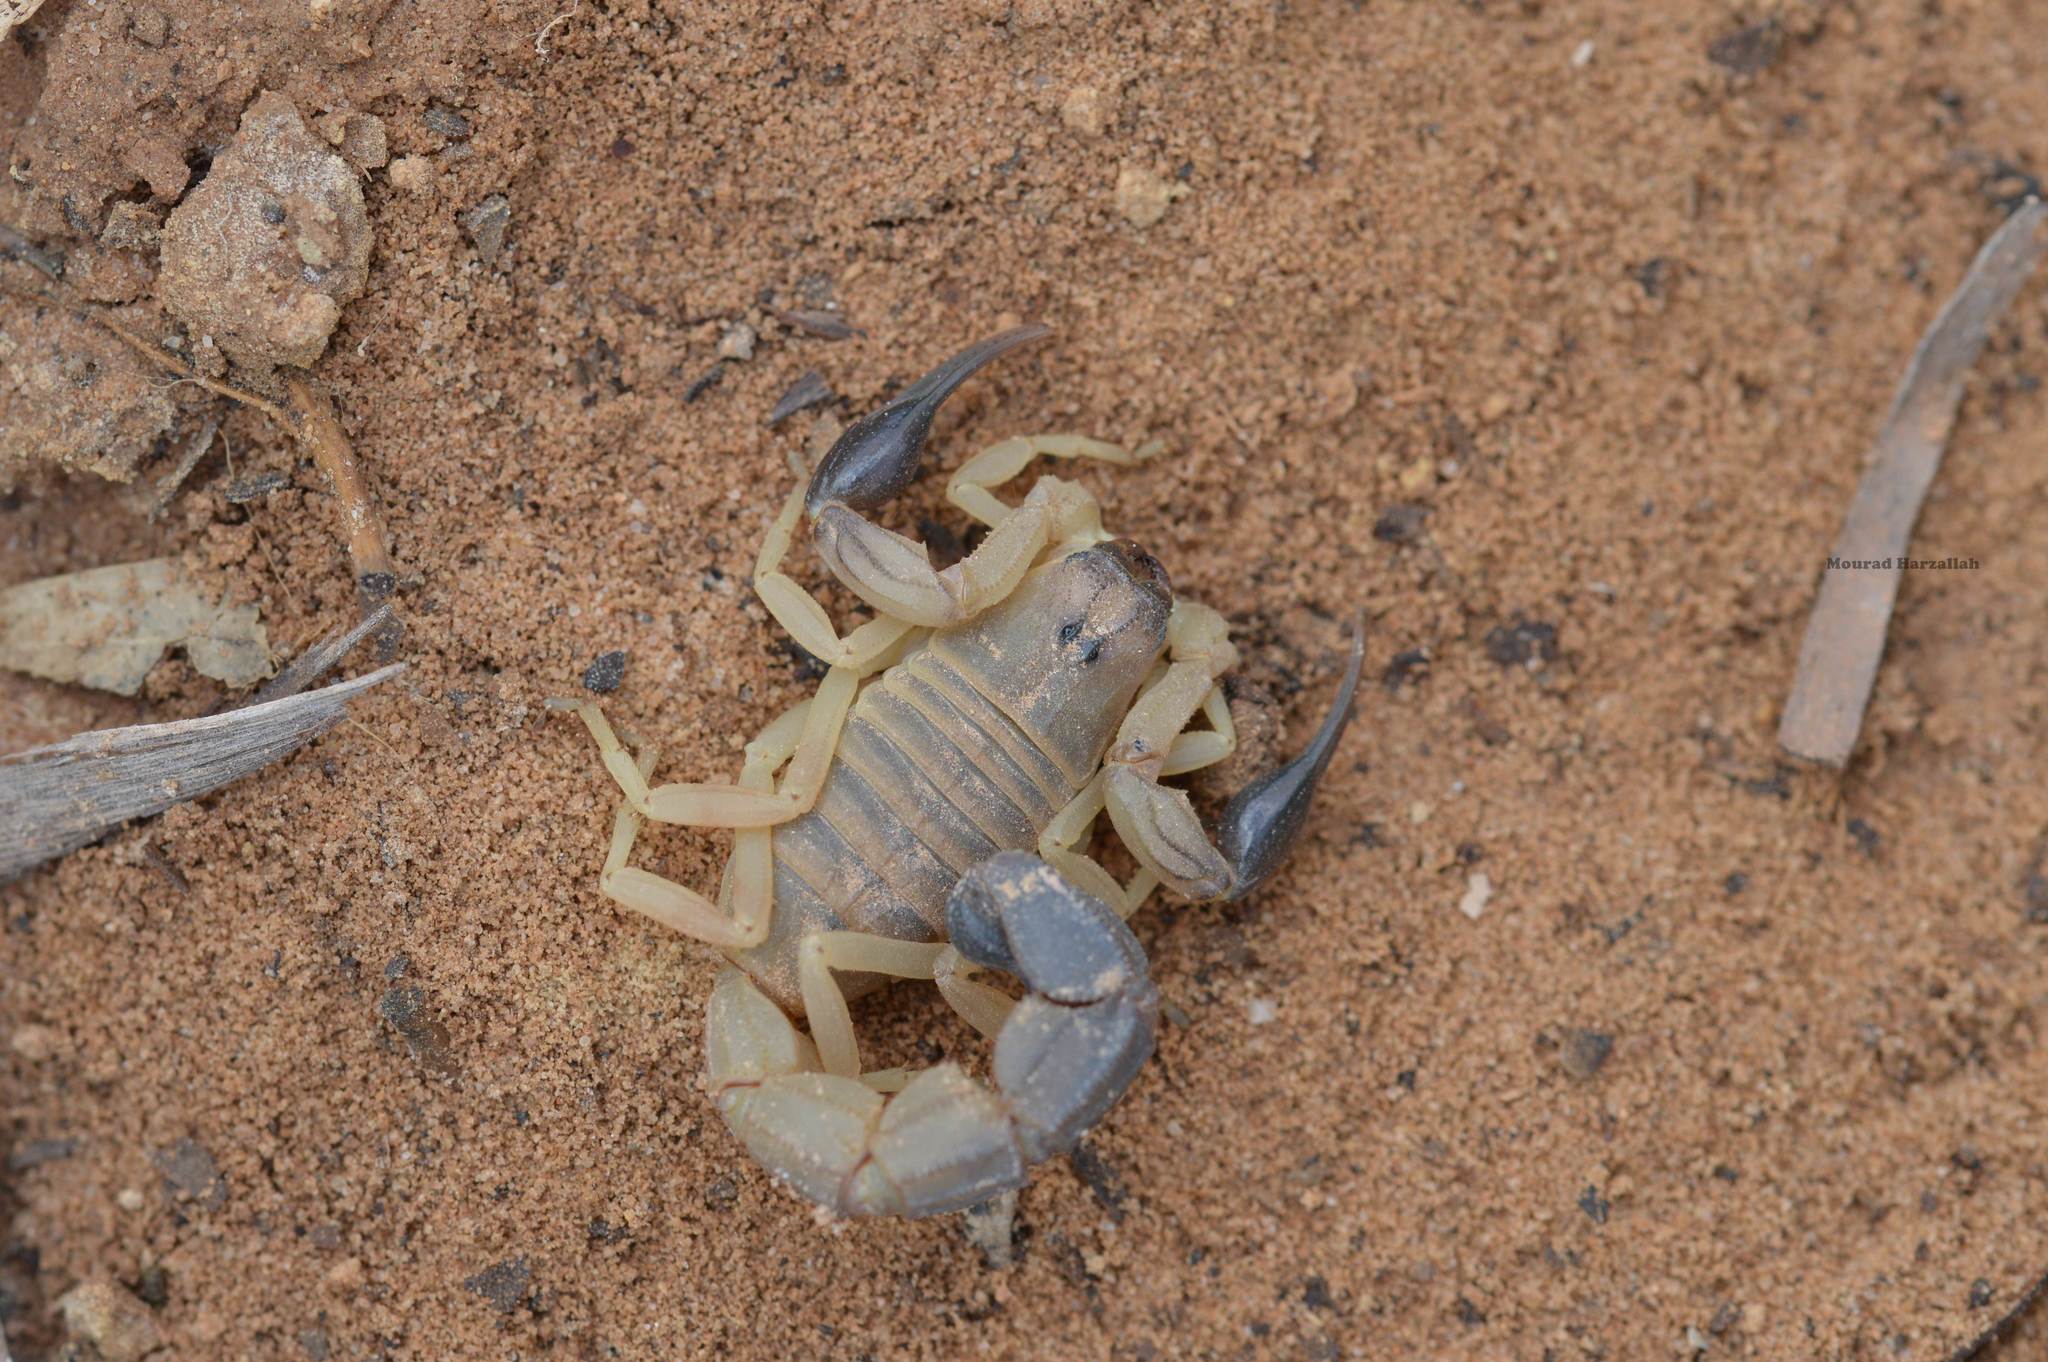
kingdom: Animalia
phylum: Arthropoda
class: Arachnida
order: Scorpiones
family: Buthidae
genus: Androctonus
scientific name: Androctonus australis
